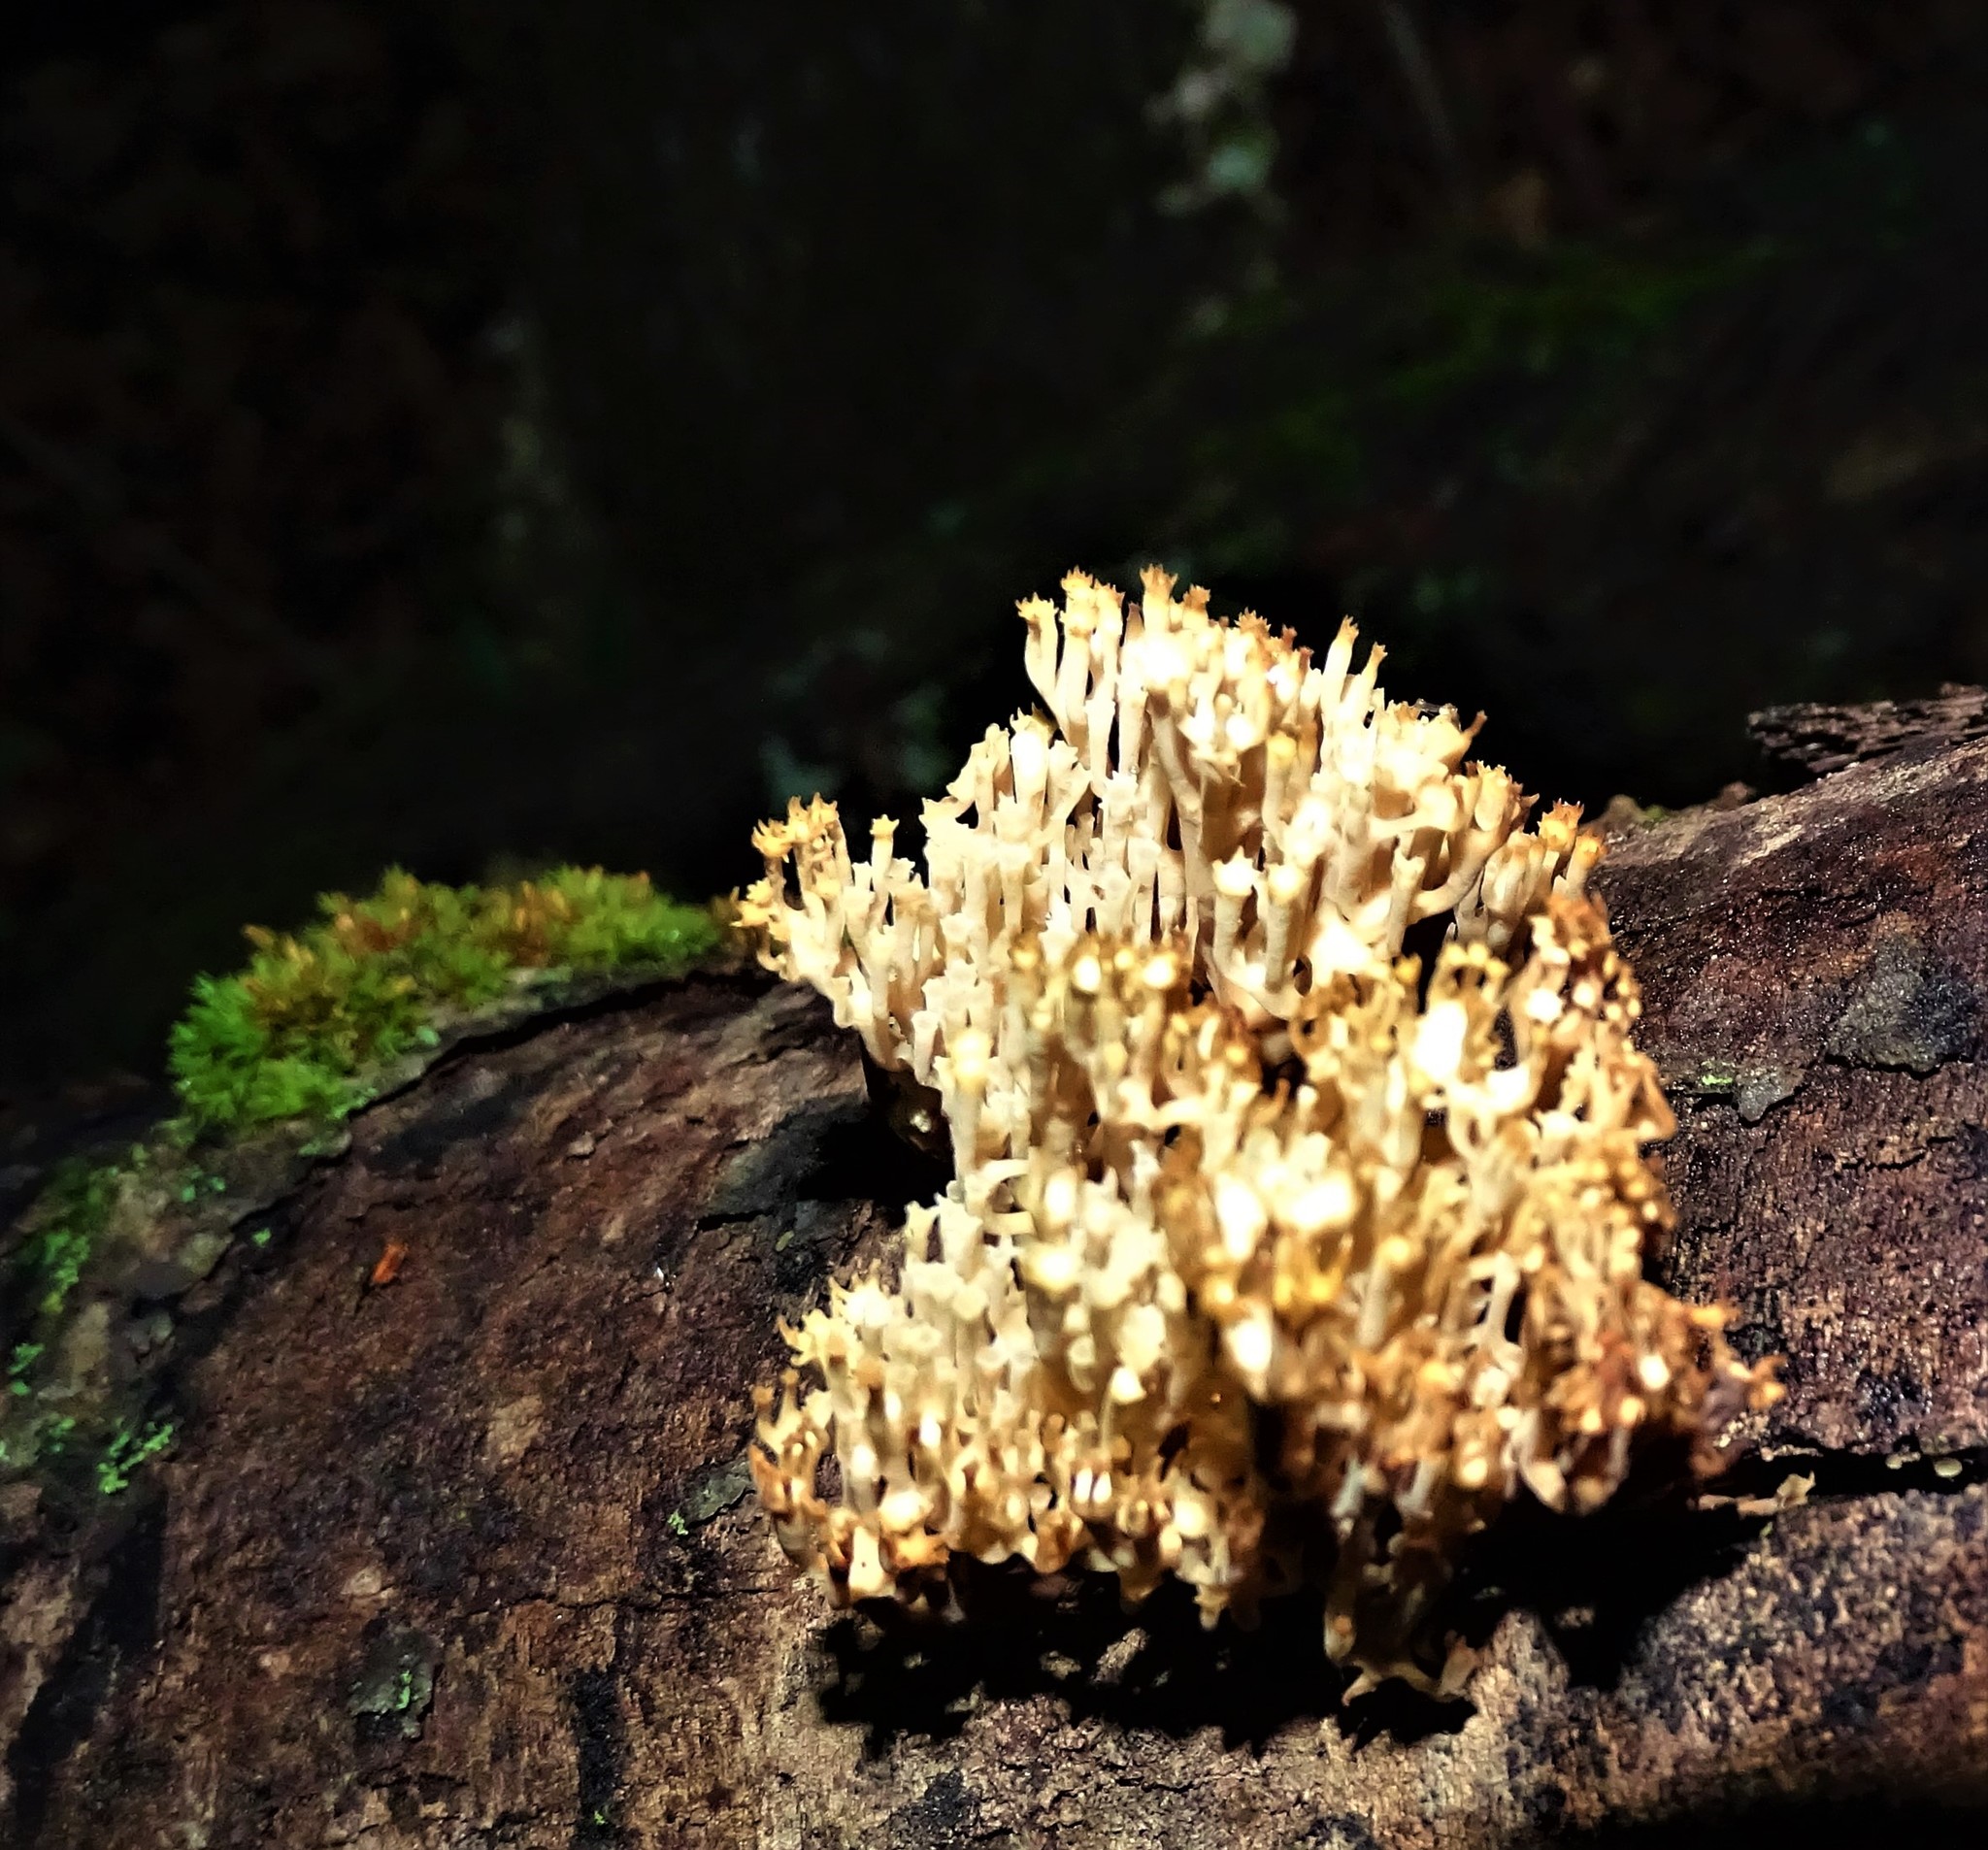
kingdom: Fungi
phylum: Basidiomycota
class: Agaricomycetes
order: Russulales
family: Auriscalpiaceae
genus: Artomyces
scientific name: Artomyces pyxidatus
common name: Crown-tipped coral fungus
